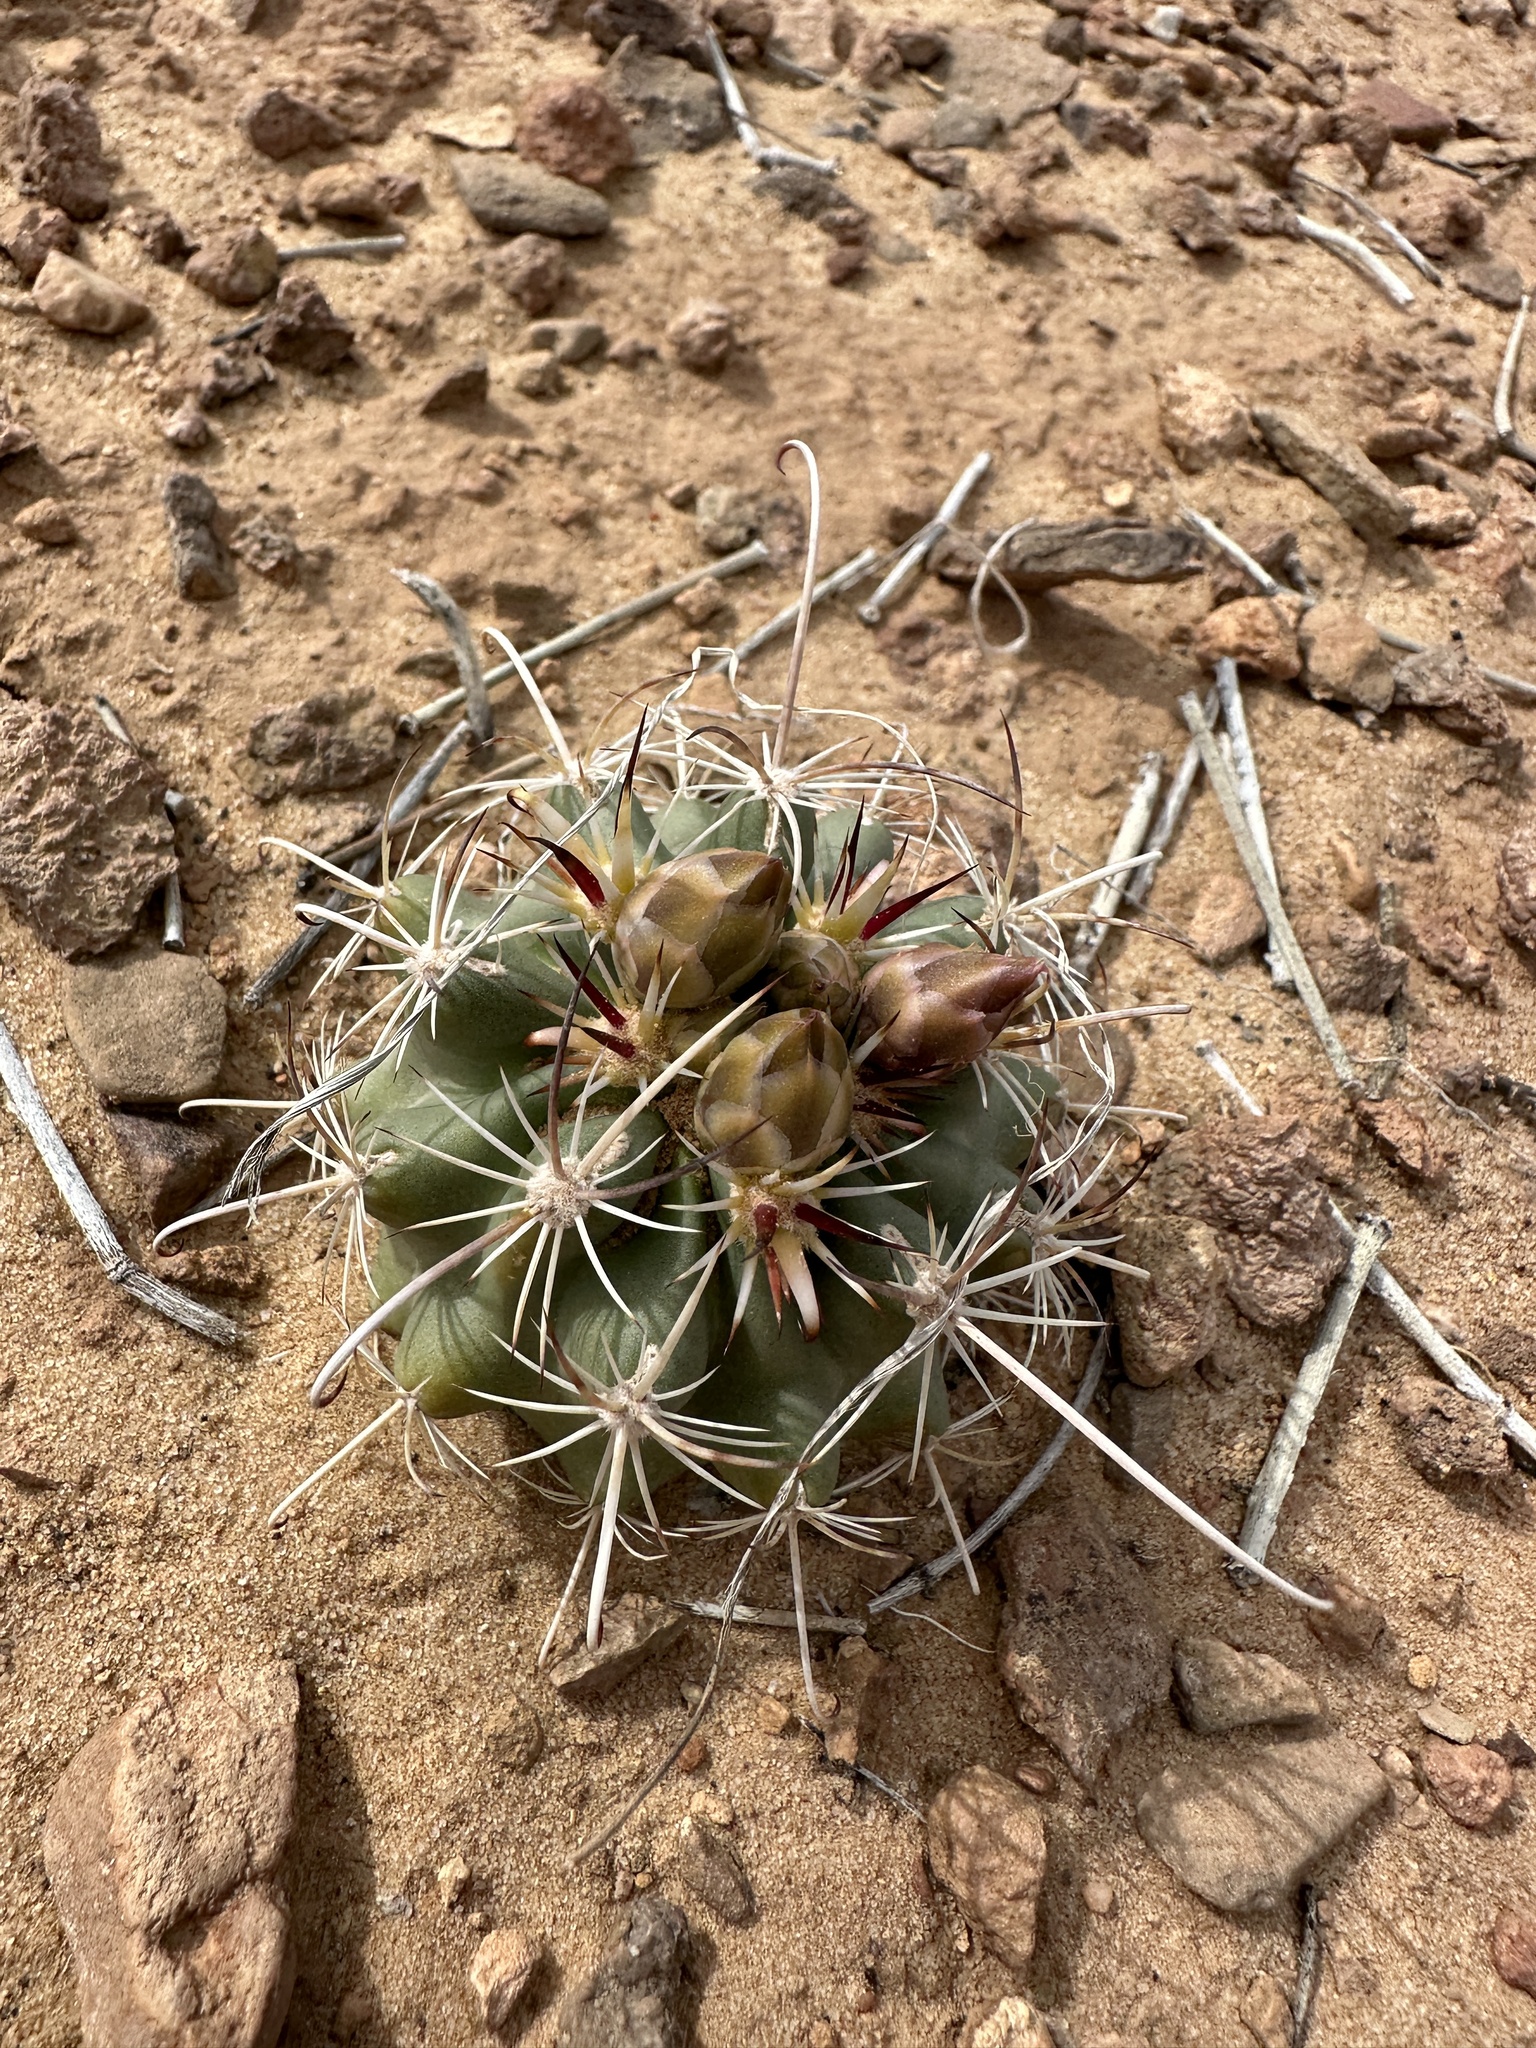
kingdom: Plantae
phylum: Tracheophyta
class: Magnoliopsida
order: Caryophyllales
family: Cactaceae
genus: Sclerocactus
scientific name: Sclerocactus parviflorus
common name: Small-flower fishhook cactus
